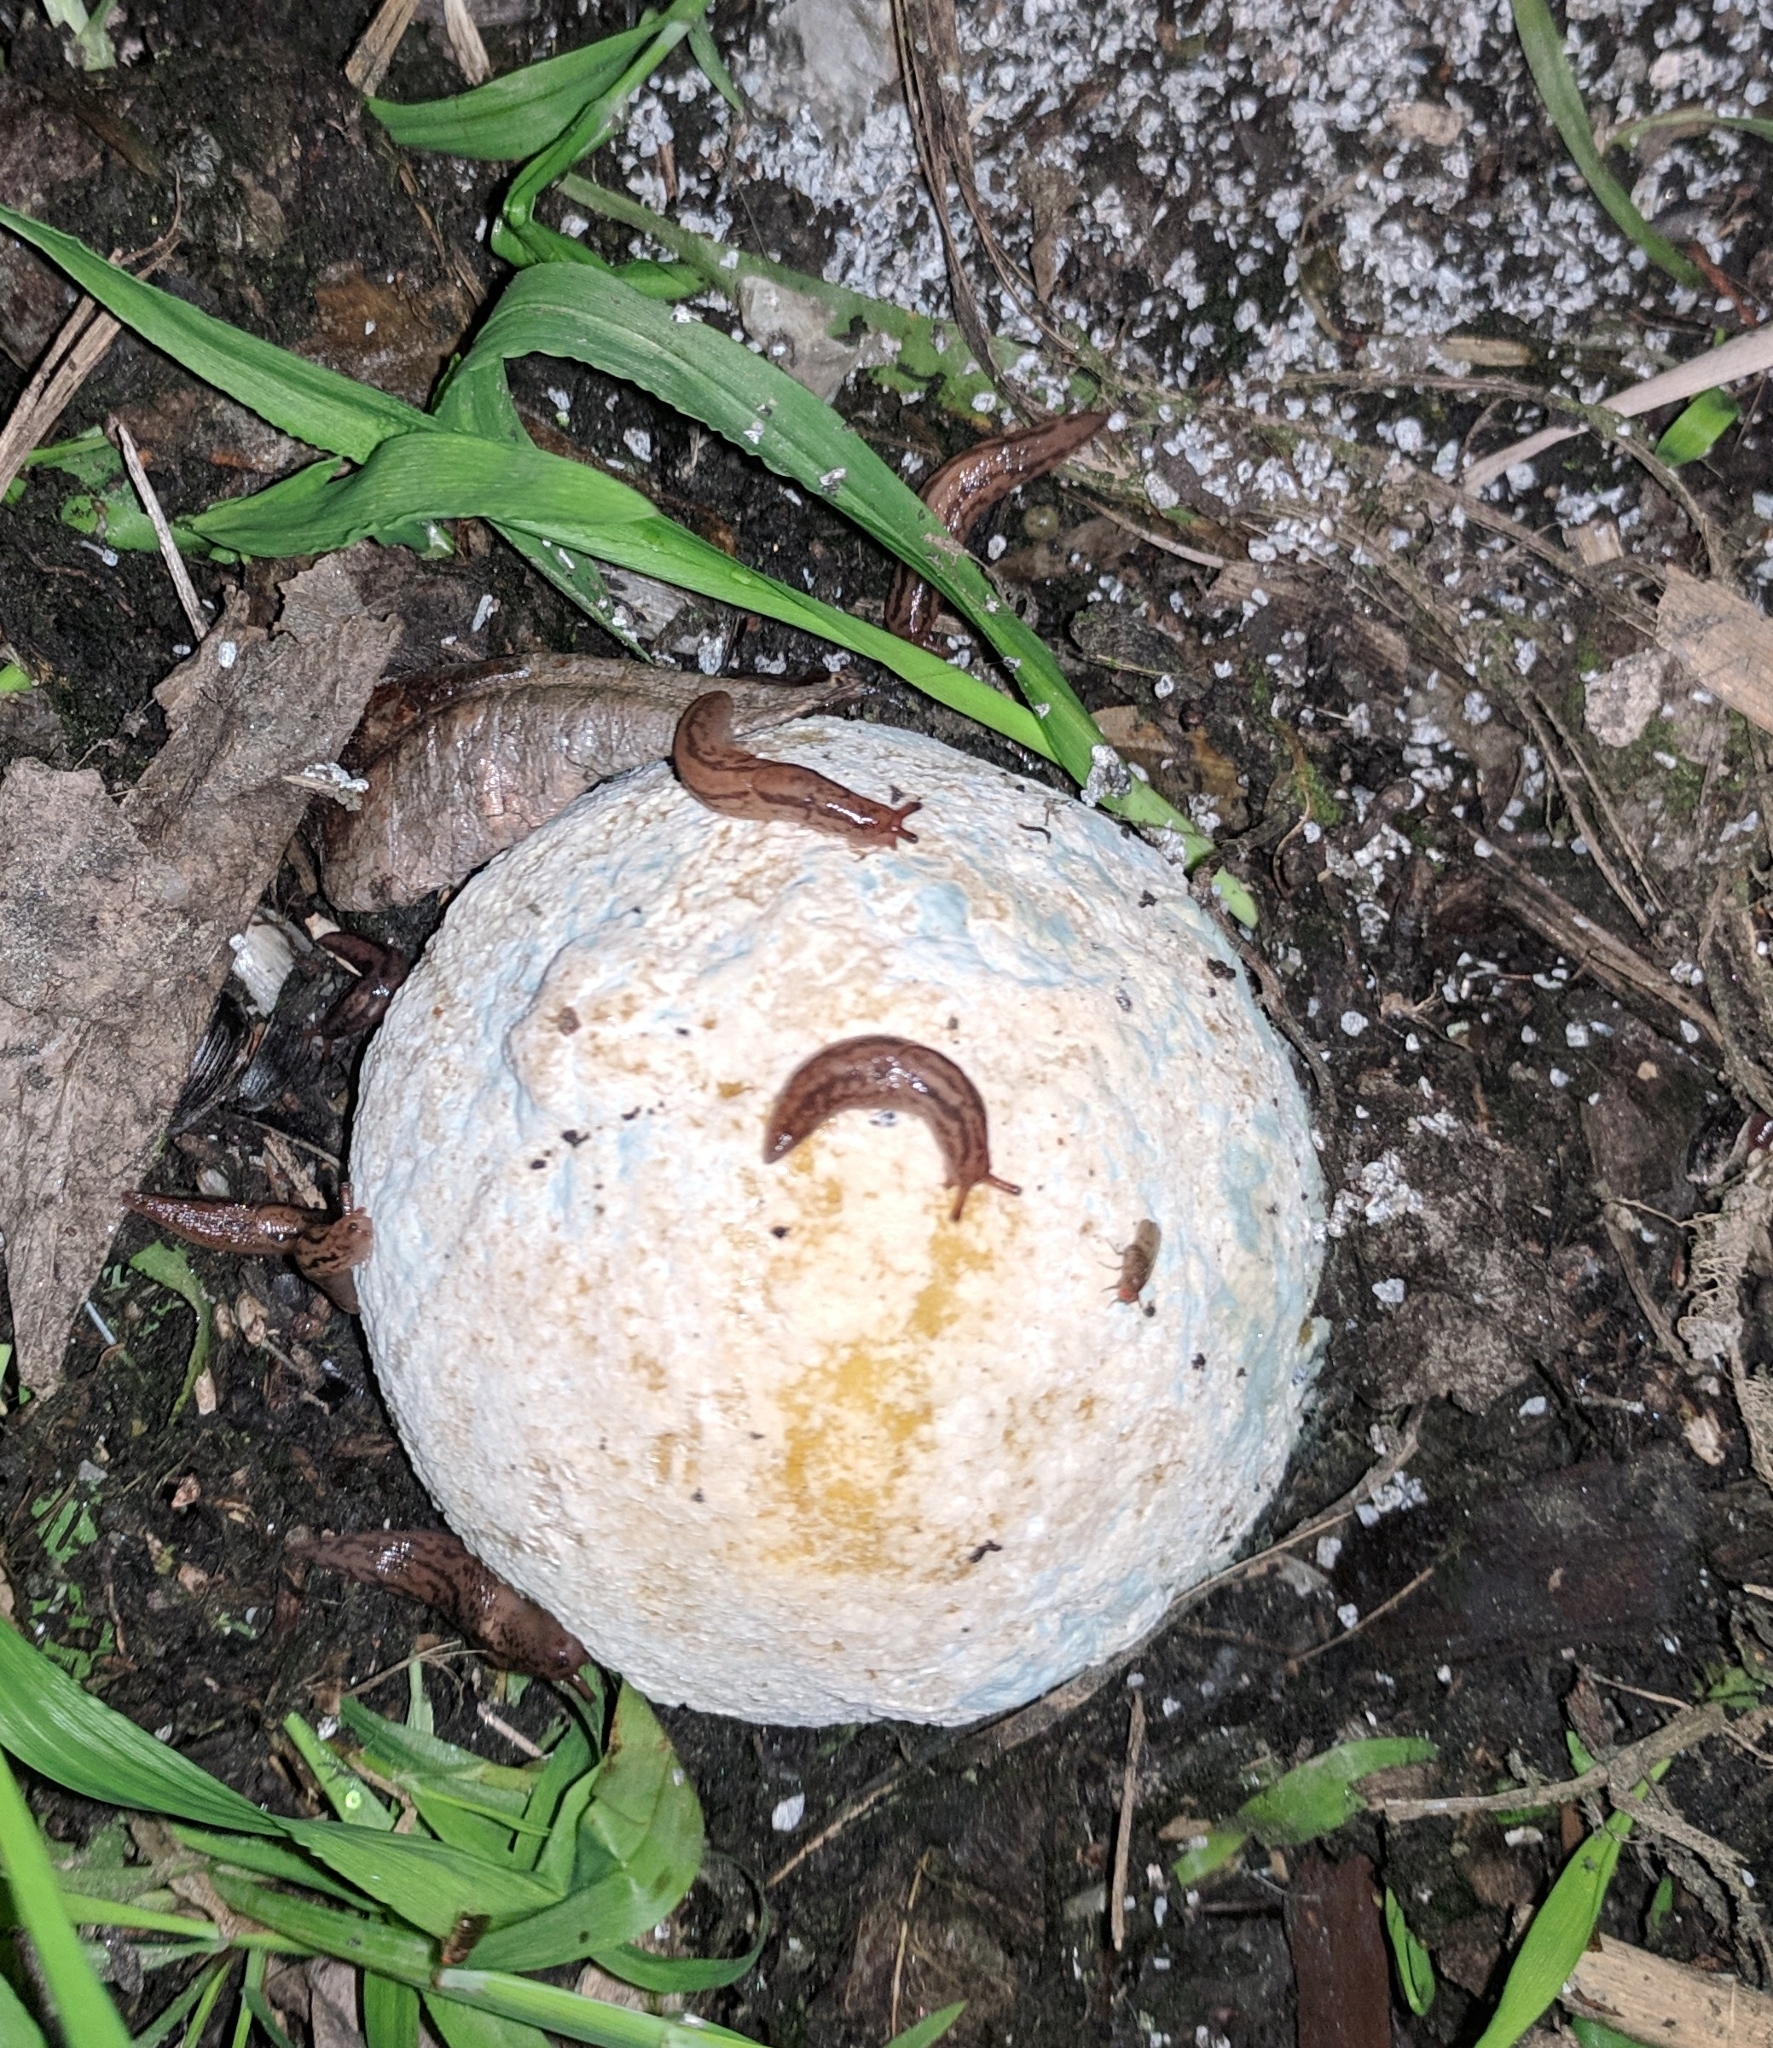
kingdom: Animalia
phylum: Mollusca
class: Gastropoda
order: Stylommatophora
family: Limacidae
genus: Ambigolimax
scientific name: Ambigolimax
